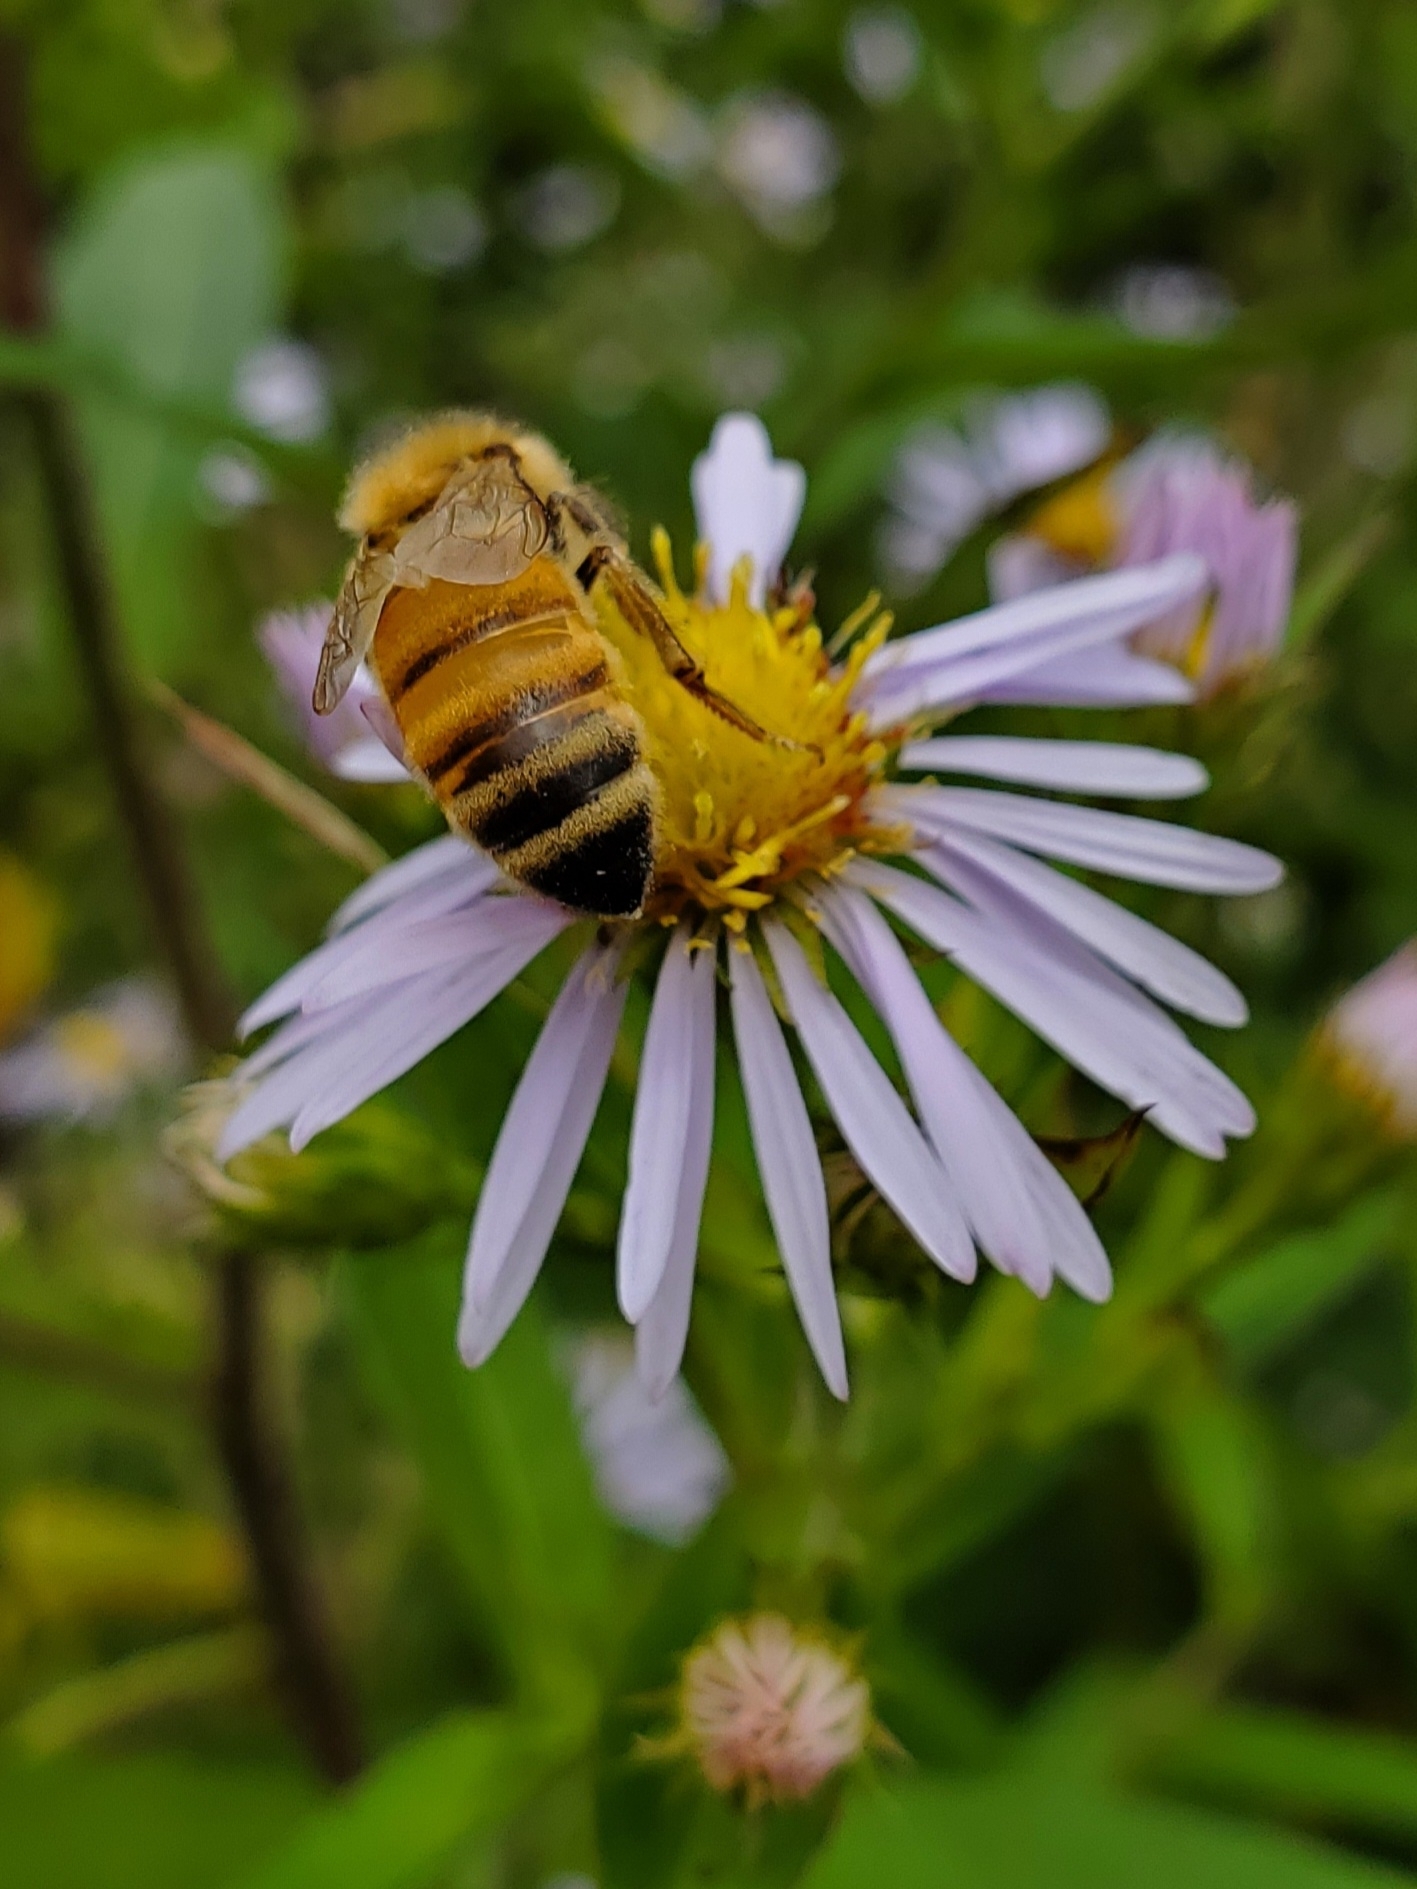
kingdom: Animalia
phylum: Arthropoda
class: Insecta
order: Hymenoptera
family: Apidae
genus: Apis
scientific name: Apis mellifera
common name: Honey bee
